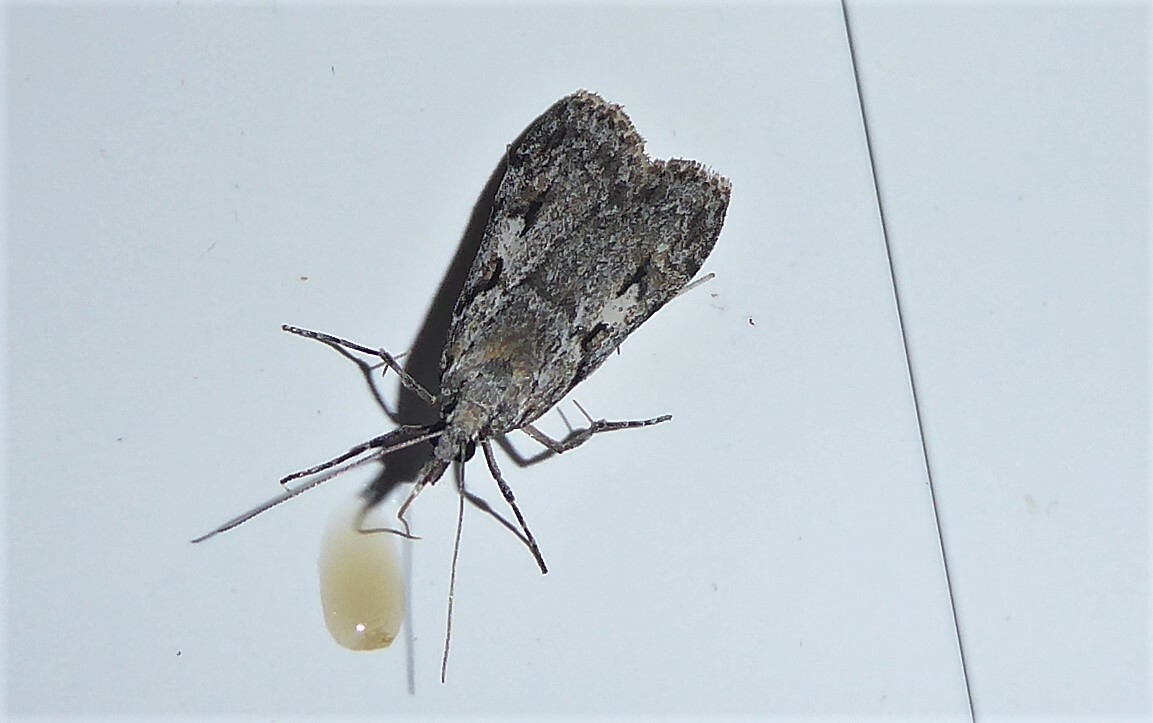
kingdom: Animalia
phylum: Arthropoda
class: Insecta
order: Lepidoptera
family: Crambidae
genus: Scoparia
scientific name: Scoparia halopis
